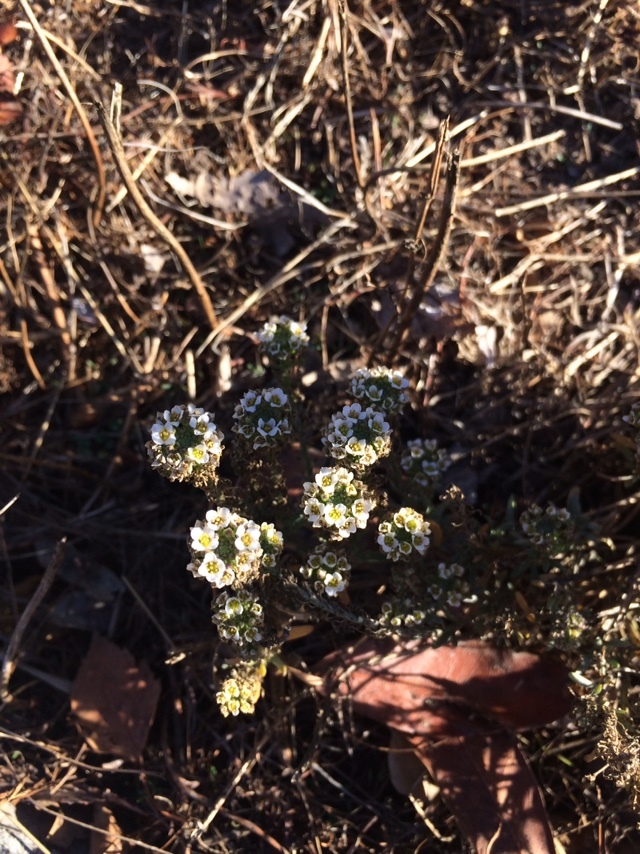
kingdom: Plantae
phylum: Tracheophyta
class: Magnoliopsida
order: Brassicales
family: Brassicaceae
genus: Lobularia
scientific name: Lobularia maritima
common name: Sweet alison
